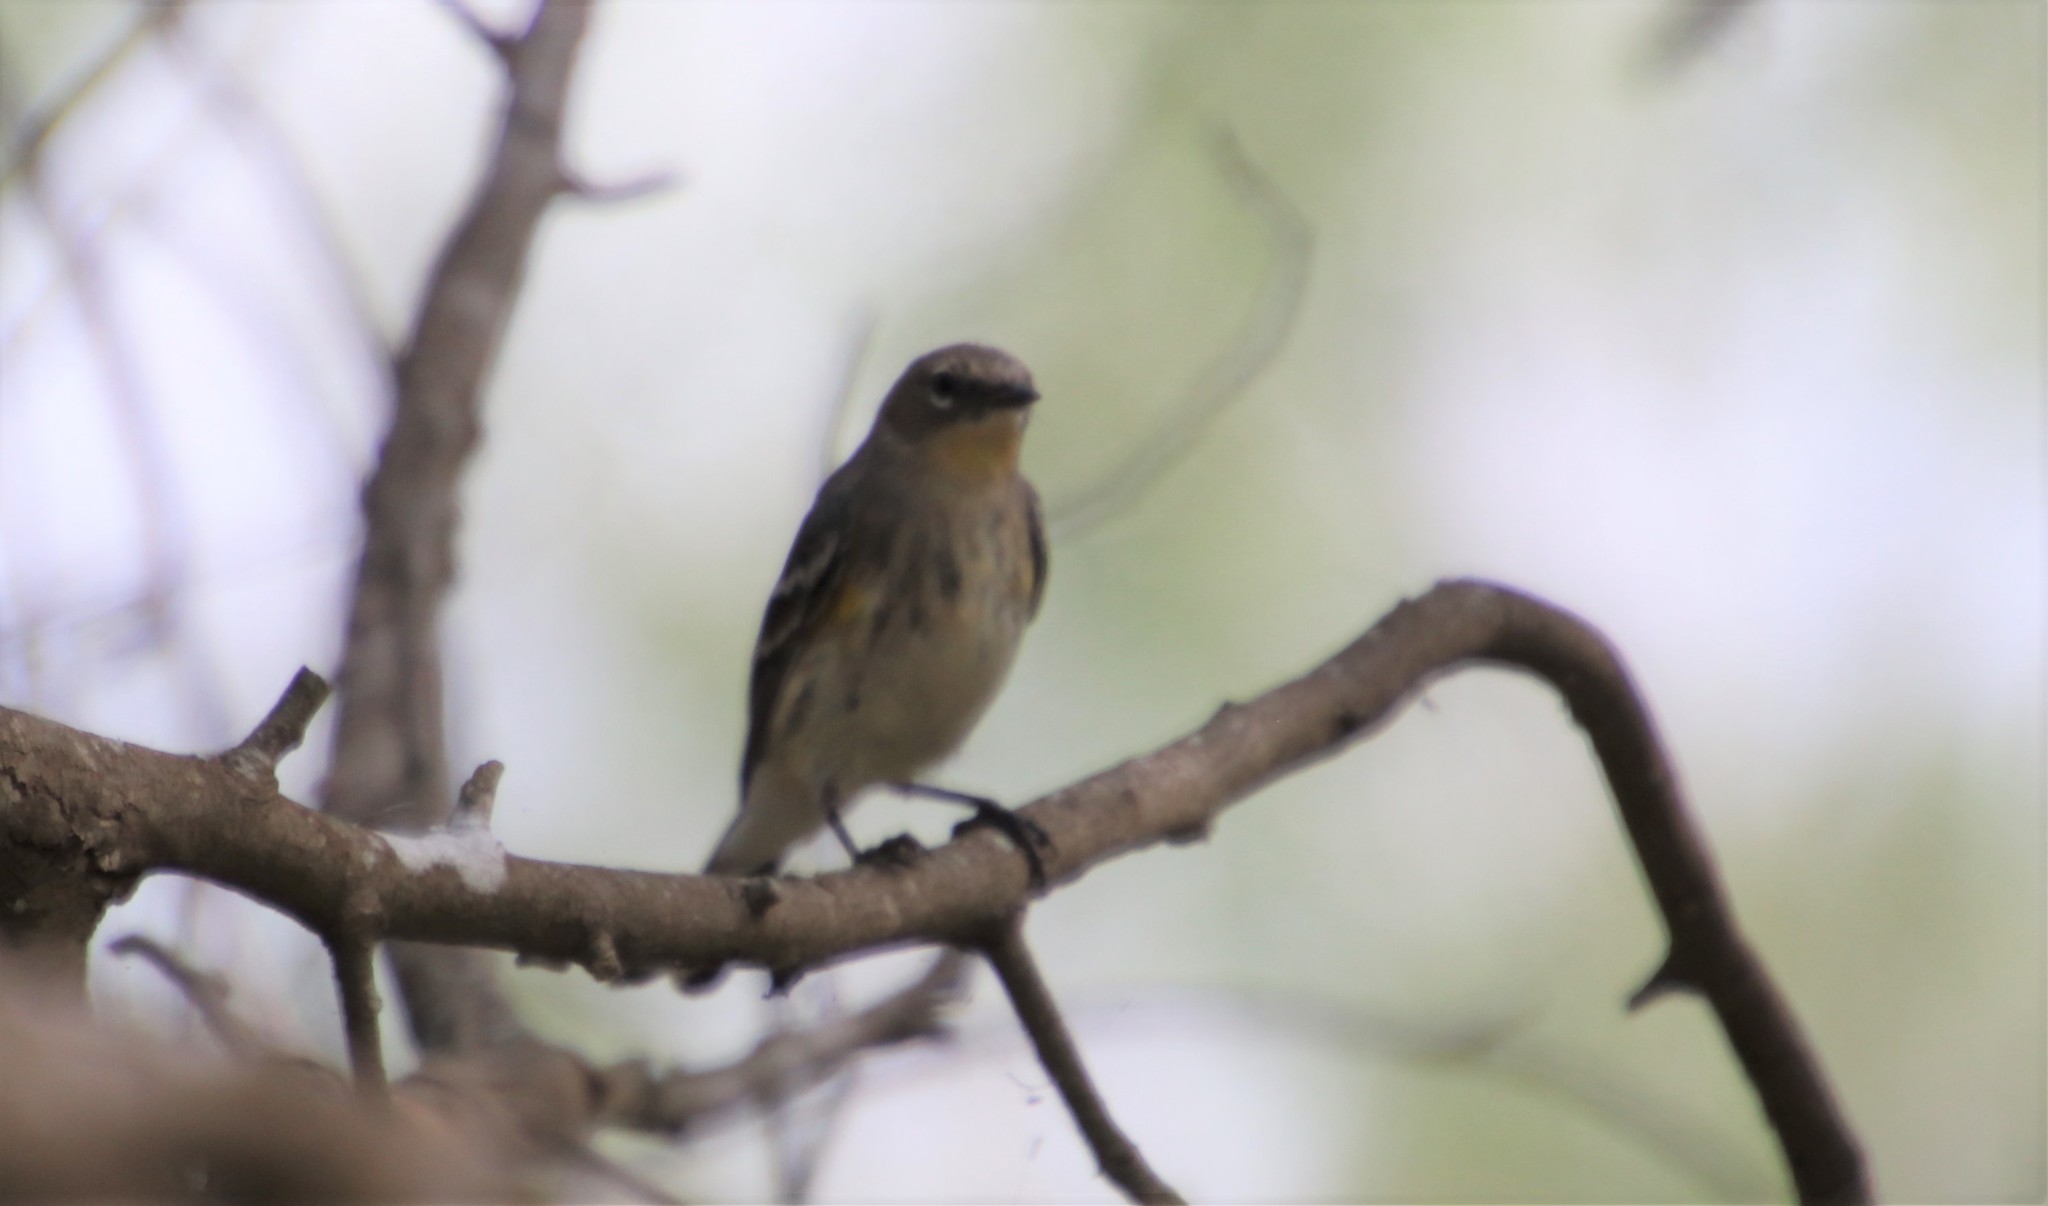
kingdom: Animalia
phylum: Chordata
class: Aves
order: Passeriformes
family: Parulidae
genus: Setophaga
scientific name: Setophaga coronata
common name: Myrtle warbler
